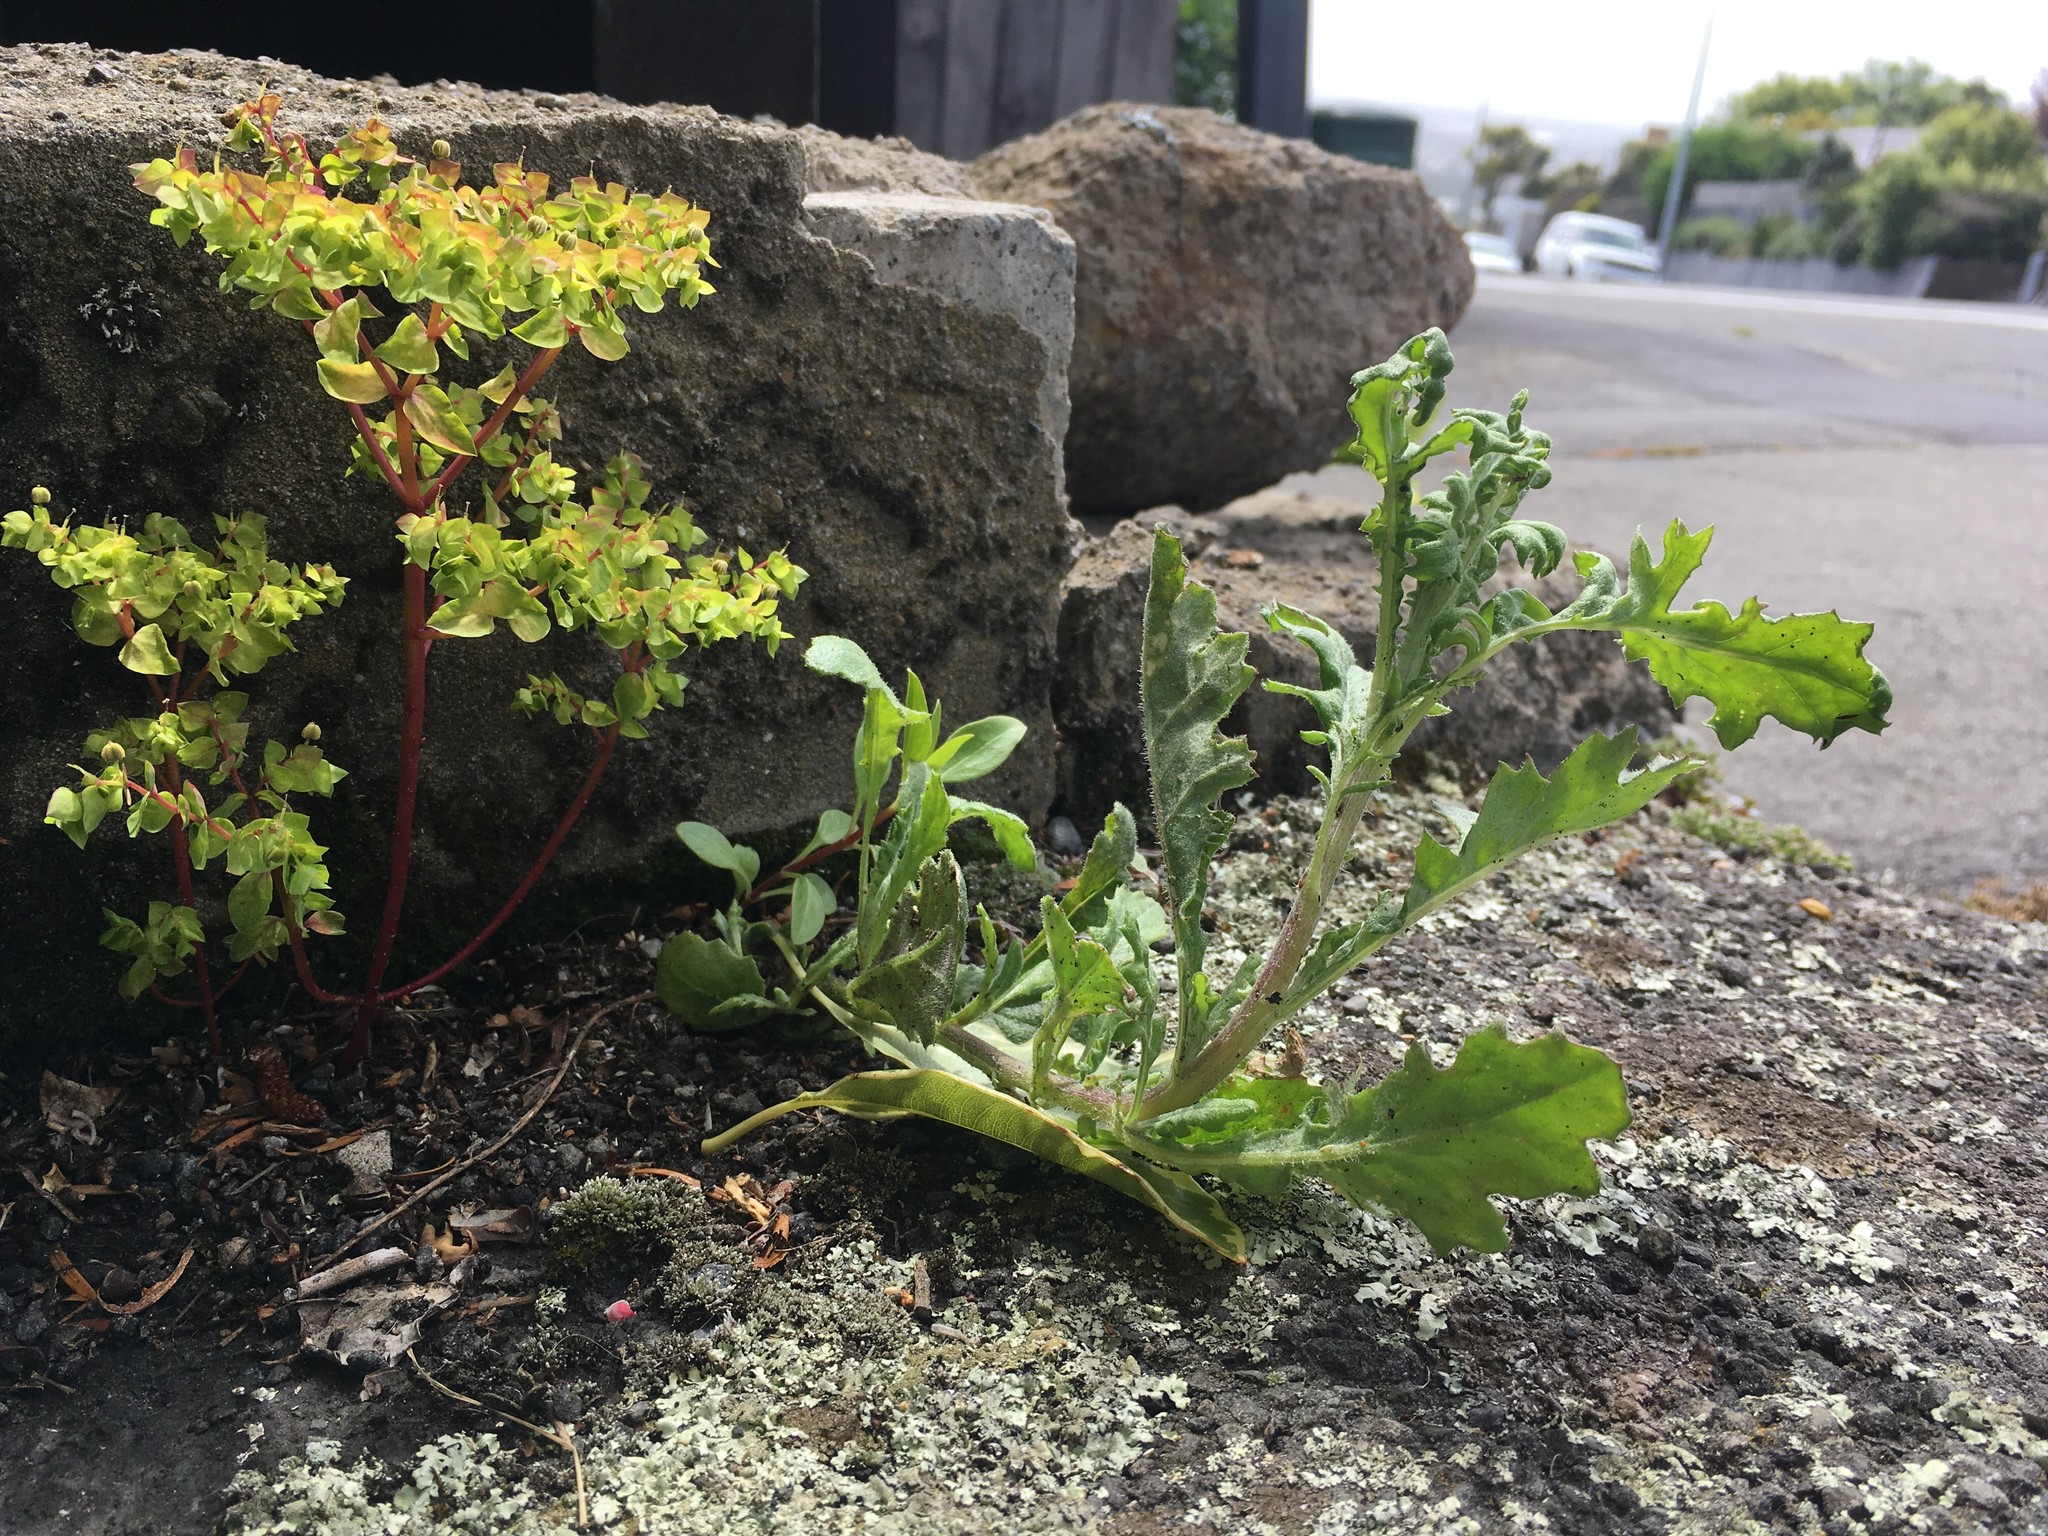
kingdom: Plantae
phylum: Tracheophyta
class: Magnoliopsida
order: Asterales
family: Asteraceae
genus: Senecio
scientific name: Senecio glomeratus
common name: Cutleaf burnweed
